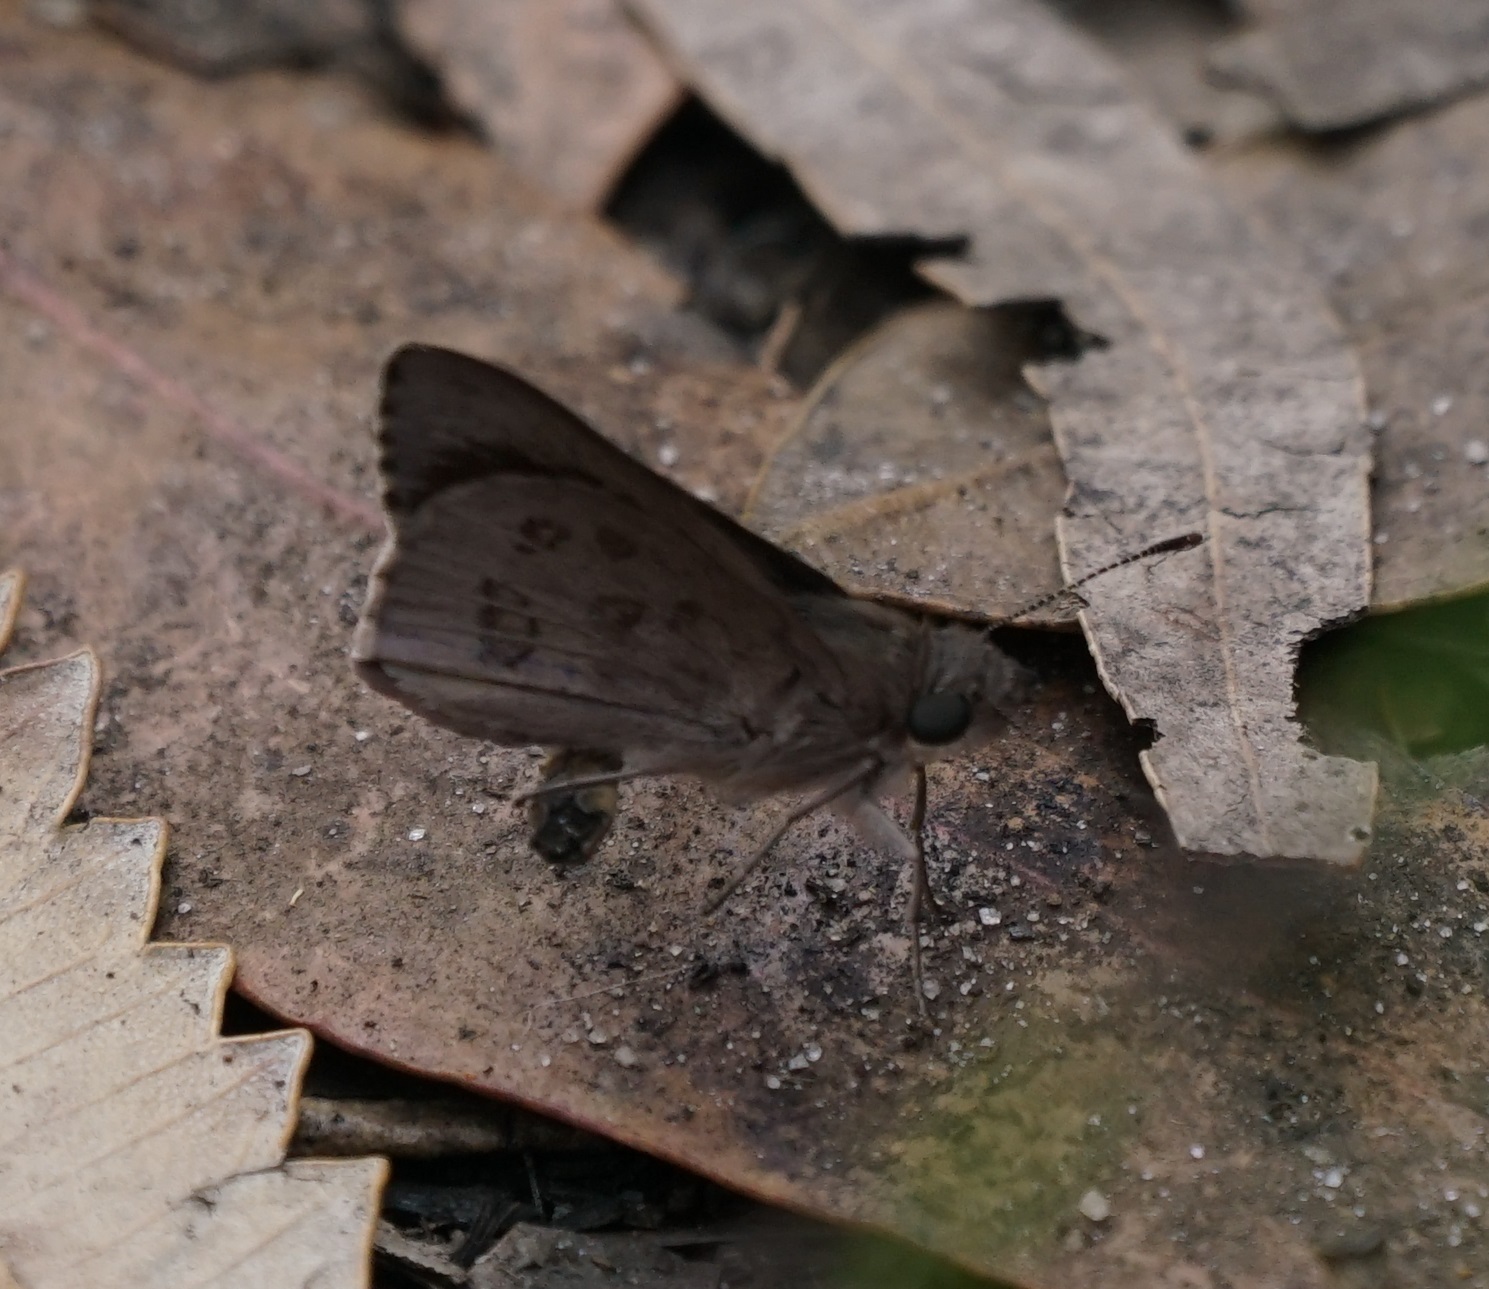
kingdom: Animalia
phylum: Arthropoda
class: Insecta
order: Lepidoptera
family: Hesperiidae
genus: Mesodina
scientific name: Mesodina halyzia
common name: Eastern iris-skipper
